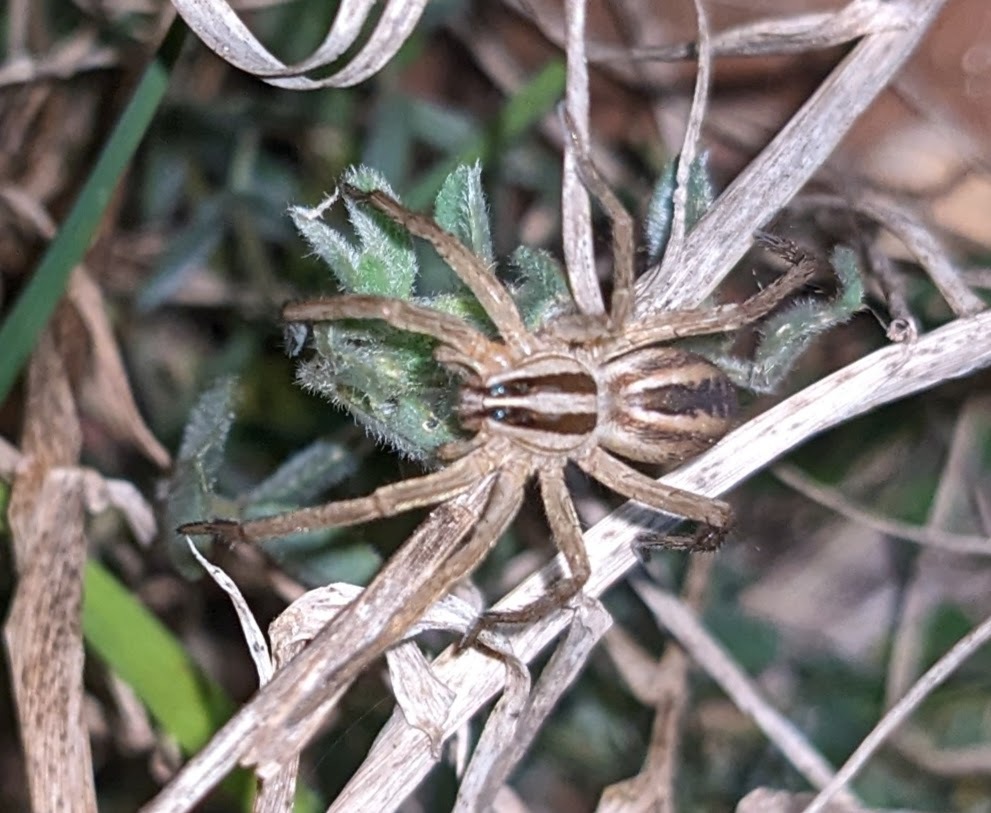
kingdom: Animalia
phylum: Arthropoda
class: Arachnida
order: Araneae
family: Lycosidae
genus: Rabidosa
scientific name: Rabidosa rabida
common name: Rabid wolf spider
